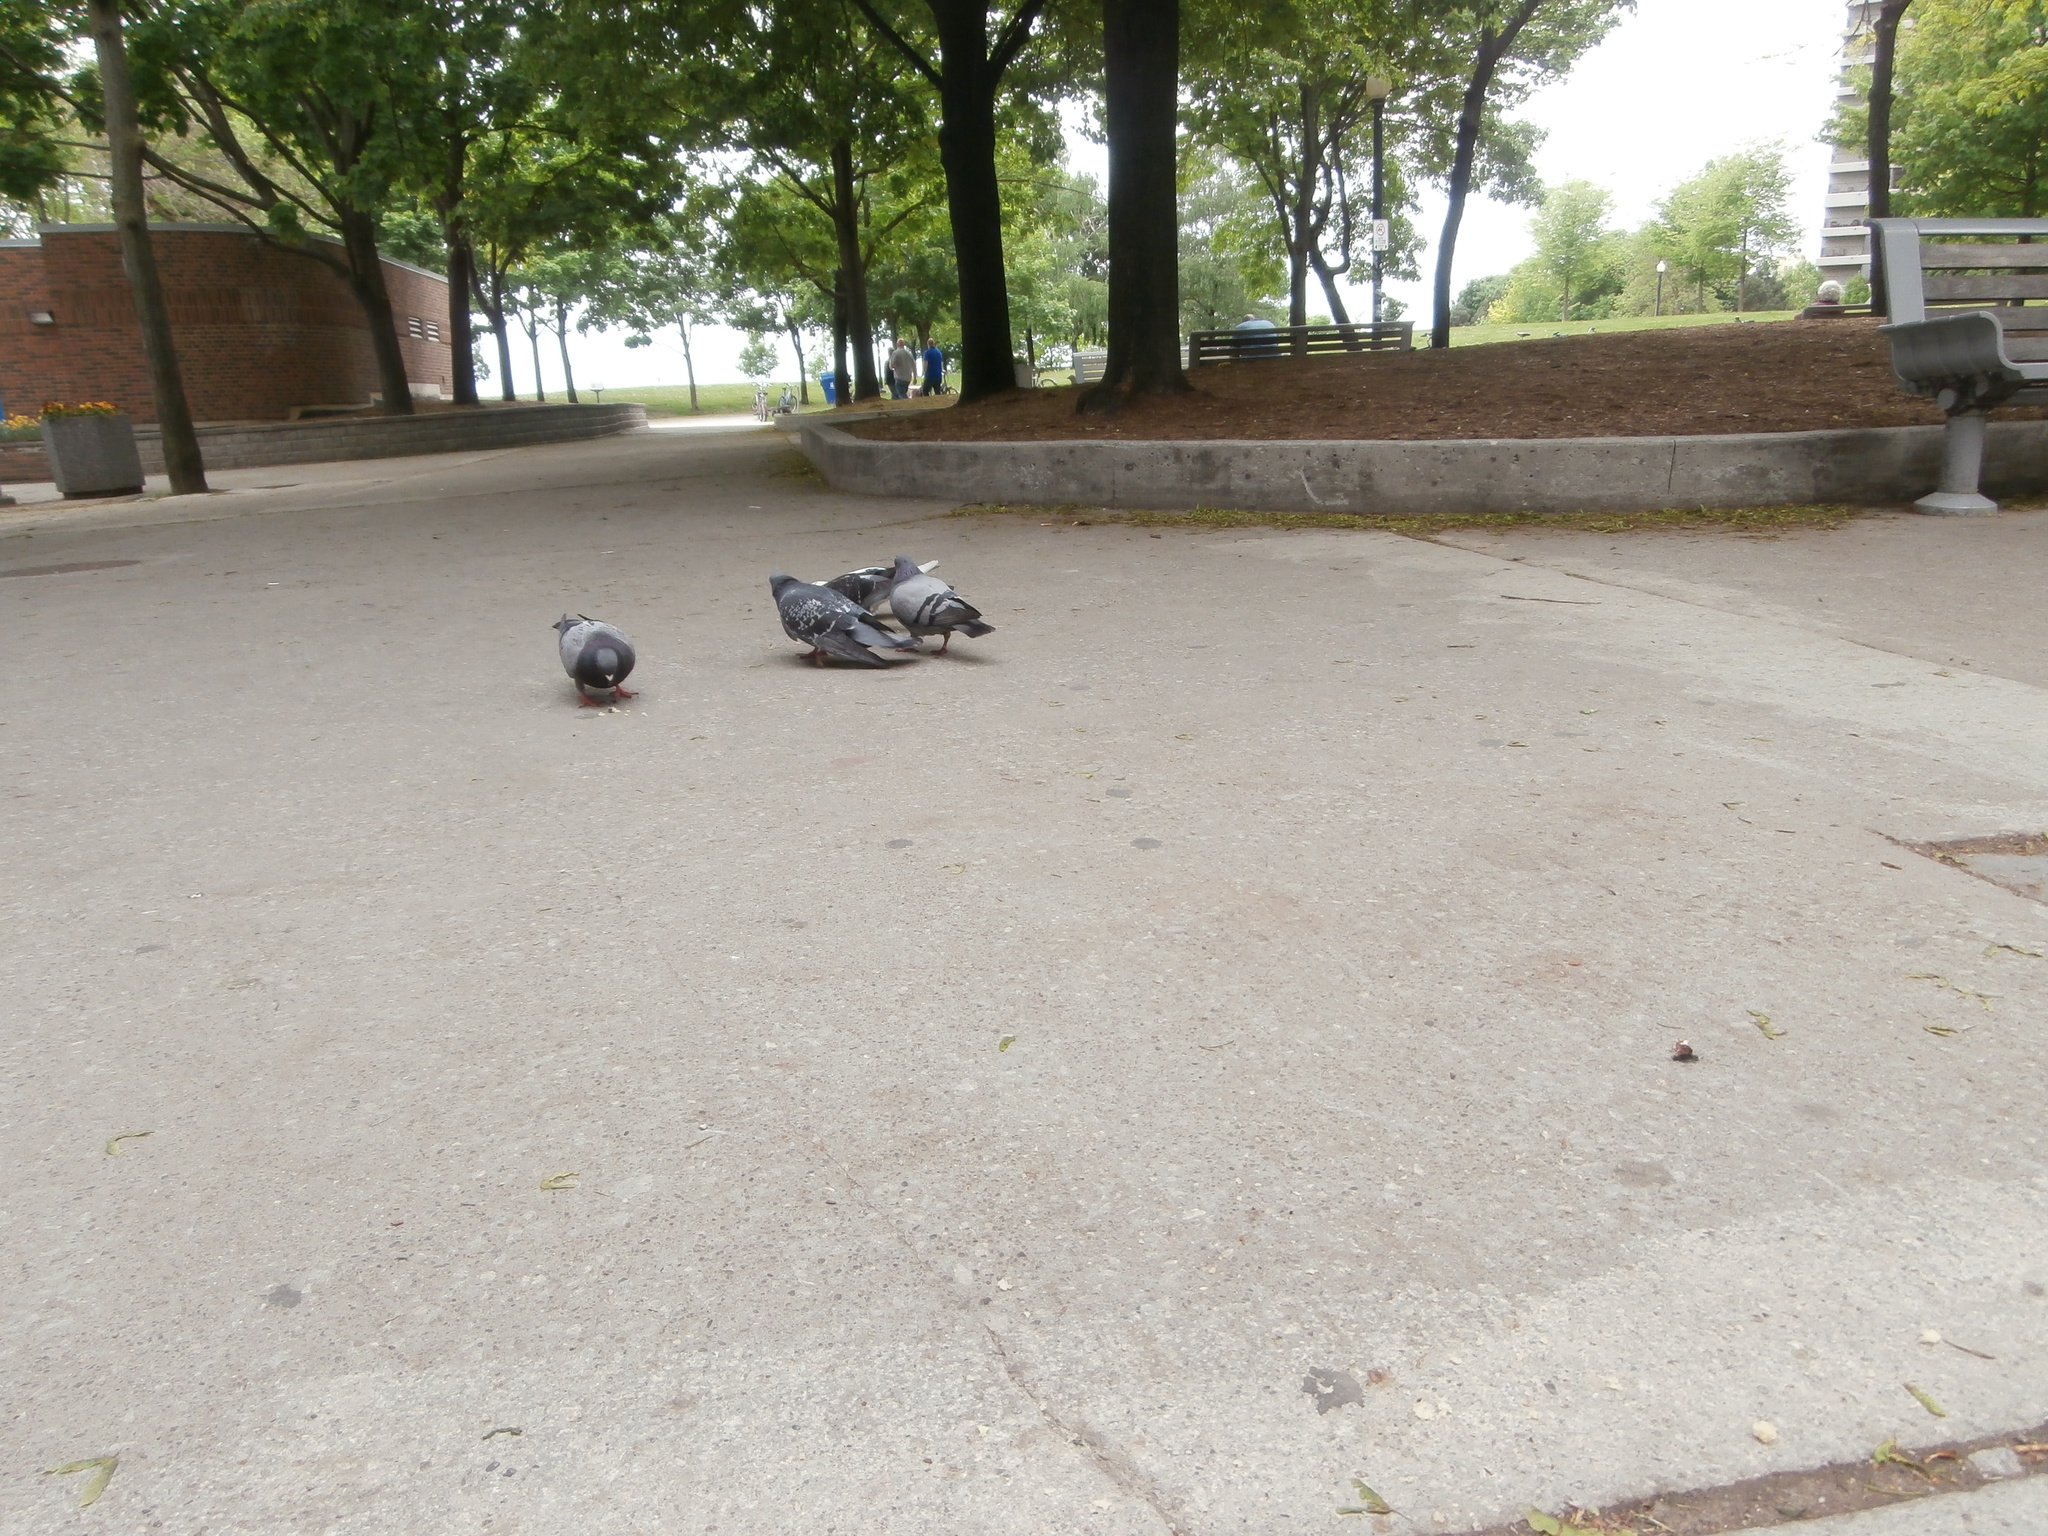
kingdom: Animalia
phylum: Chordata
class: Aves
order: Columbiformes
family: Columbidae
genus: Columba
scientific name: Columba livia
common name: Rock pigeon
